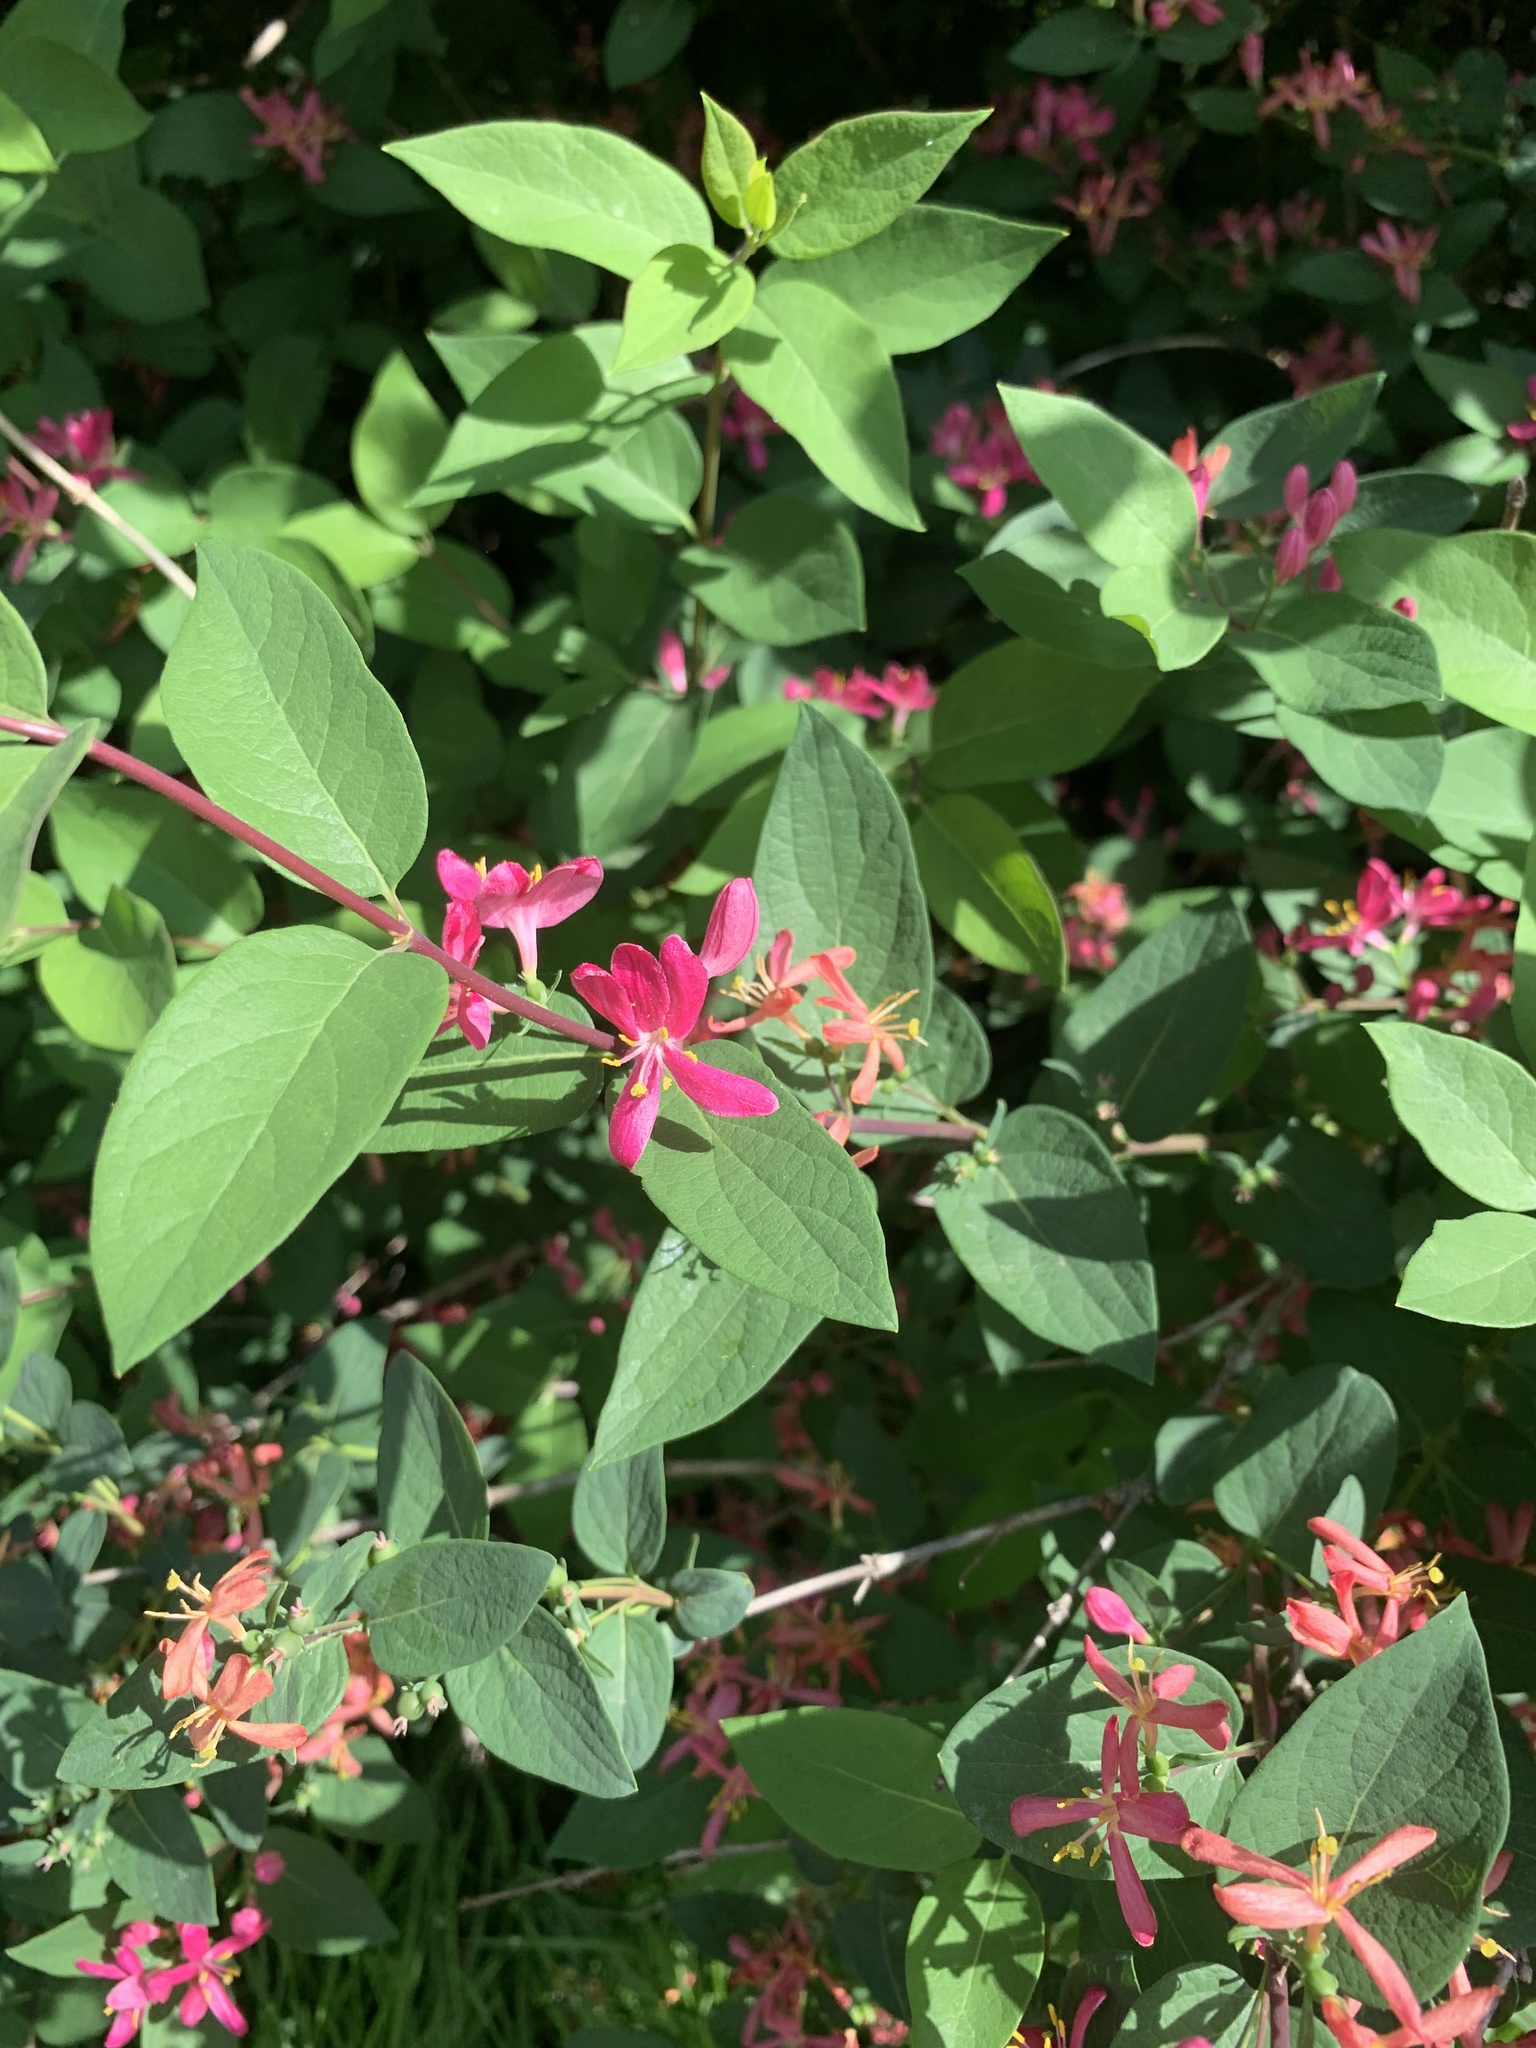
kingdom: Plantae
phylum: Tracheophyta
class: Magnoliopsida
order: Dipsacales
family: Caprifoliaceae
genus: Lonicera
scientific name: Lonicera tatarica
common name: Tatarian honeysuckle
